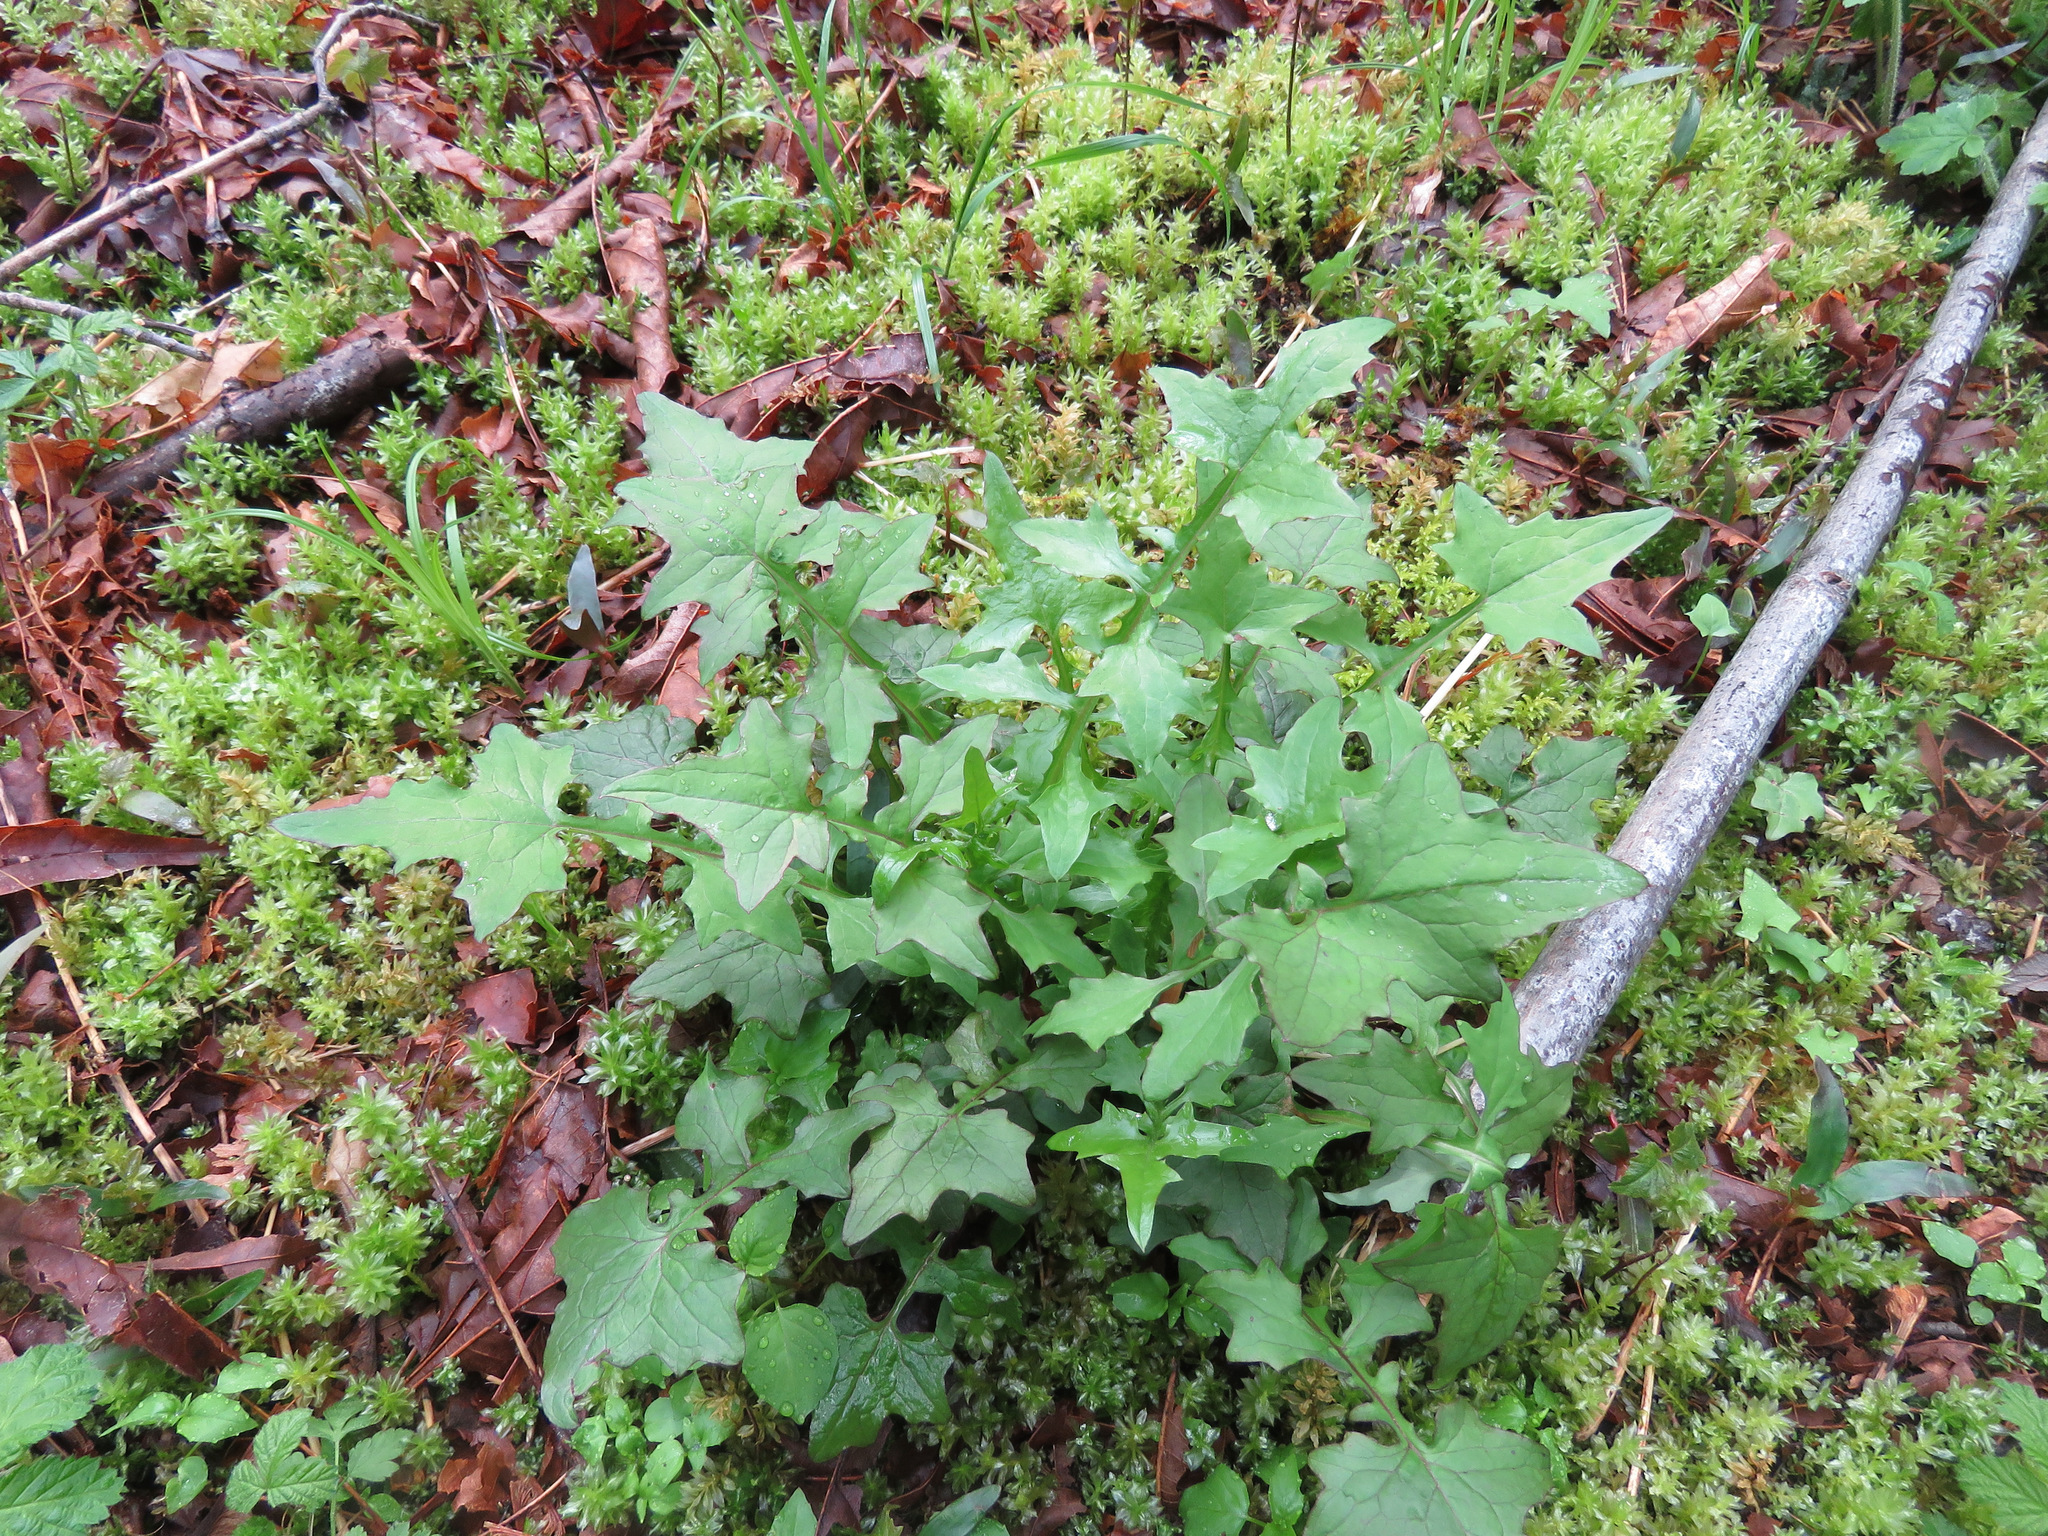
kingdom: Plantae
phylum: Tracheophyta
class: Magnoliopsida
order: Asterales
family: Asteraceae
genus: Mycelis
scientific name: Mycelis muralis
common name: Wall lettuce
